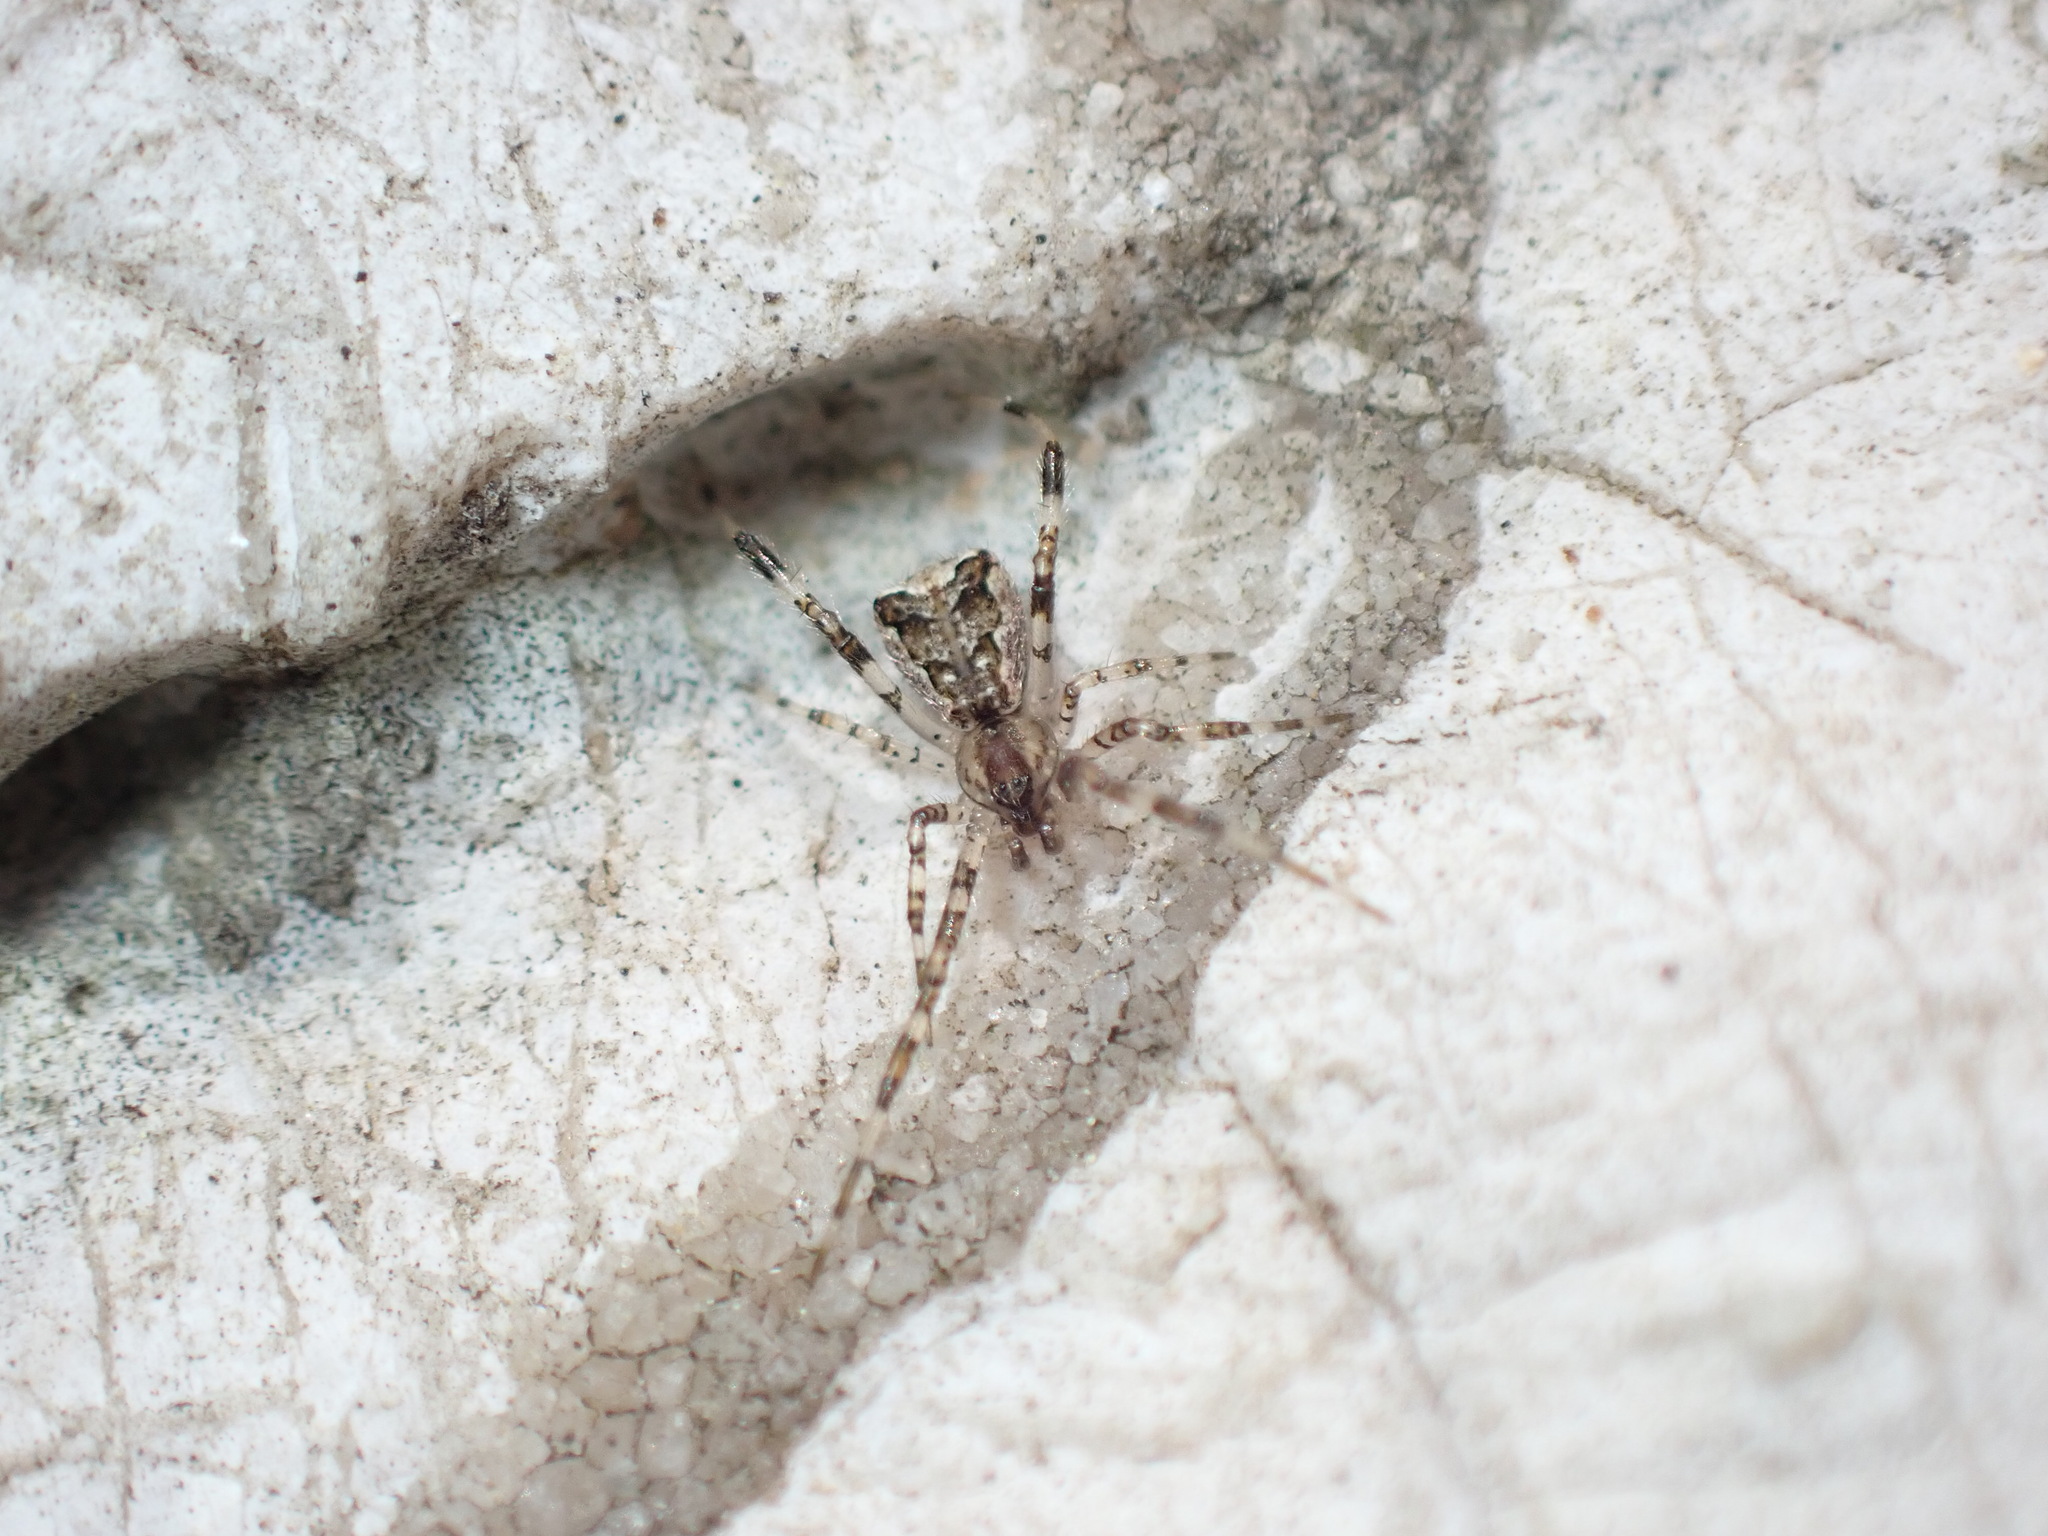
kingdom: Animalia
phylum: Arthropoda
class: Arachnida
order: Araneae
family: Theridiidae
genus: Episinus
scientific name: Episinus maculipes
